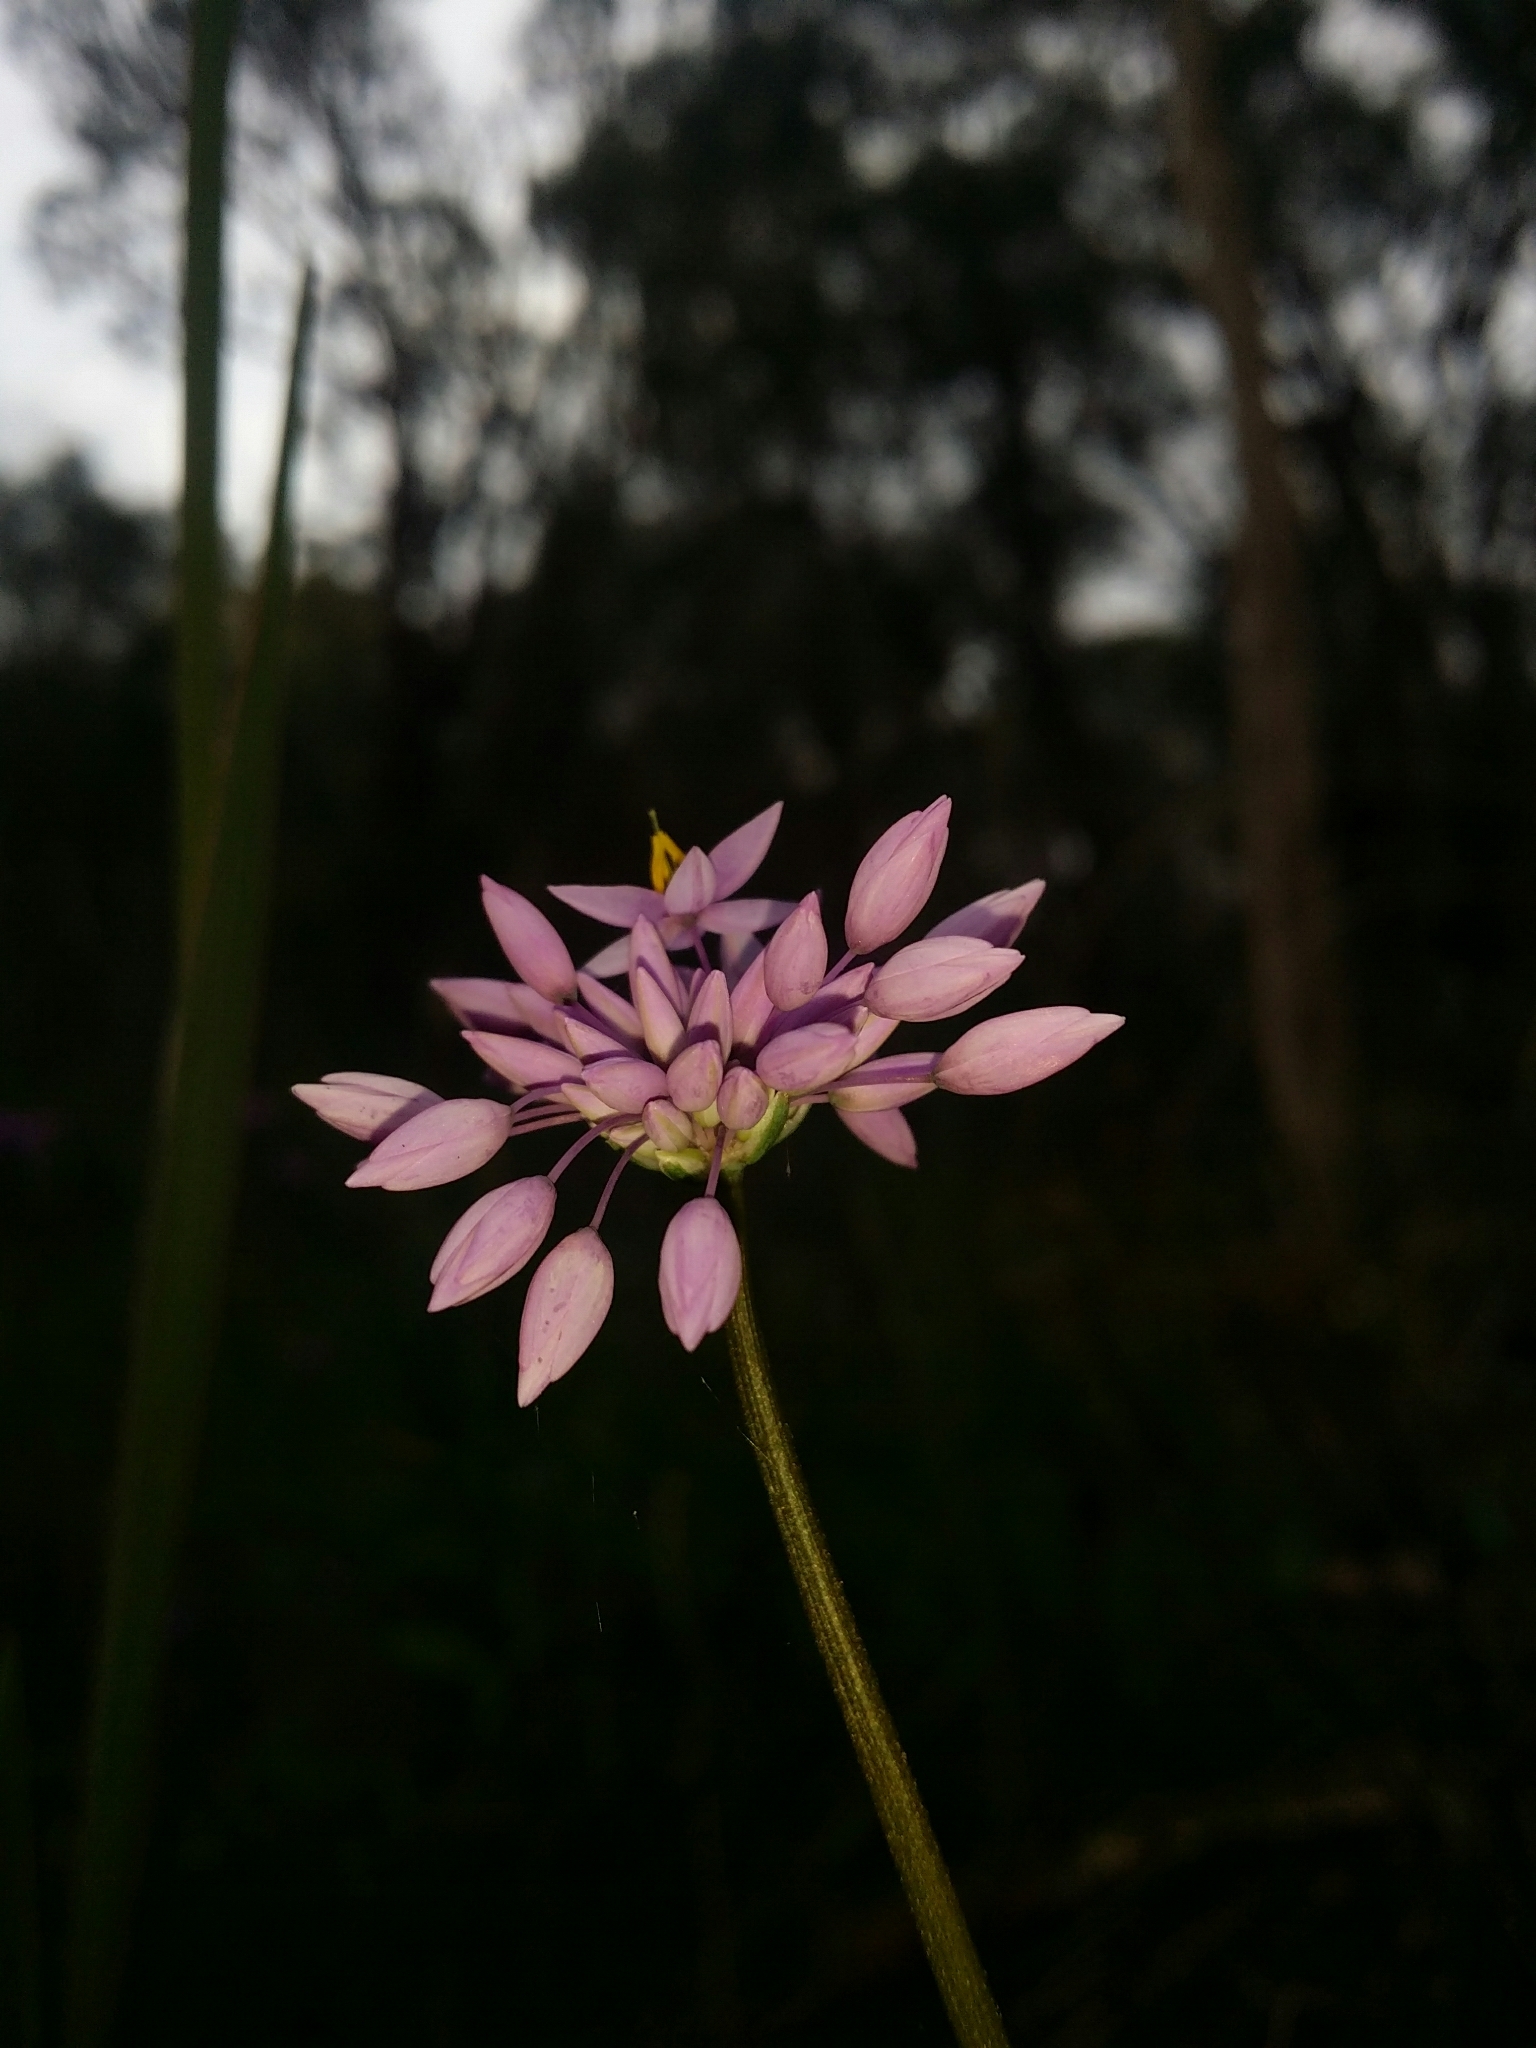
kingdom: Plantae
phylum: Tracheophyta
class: Liliopsida
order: Asparagales
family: Asparagaceae
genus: Sowerbaea
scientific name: Sowerbaea laxiflora
